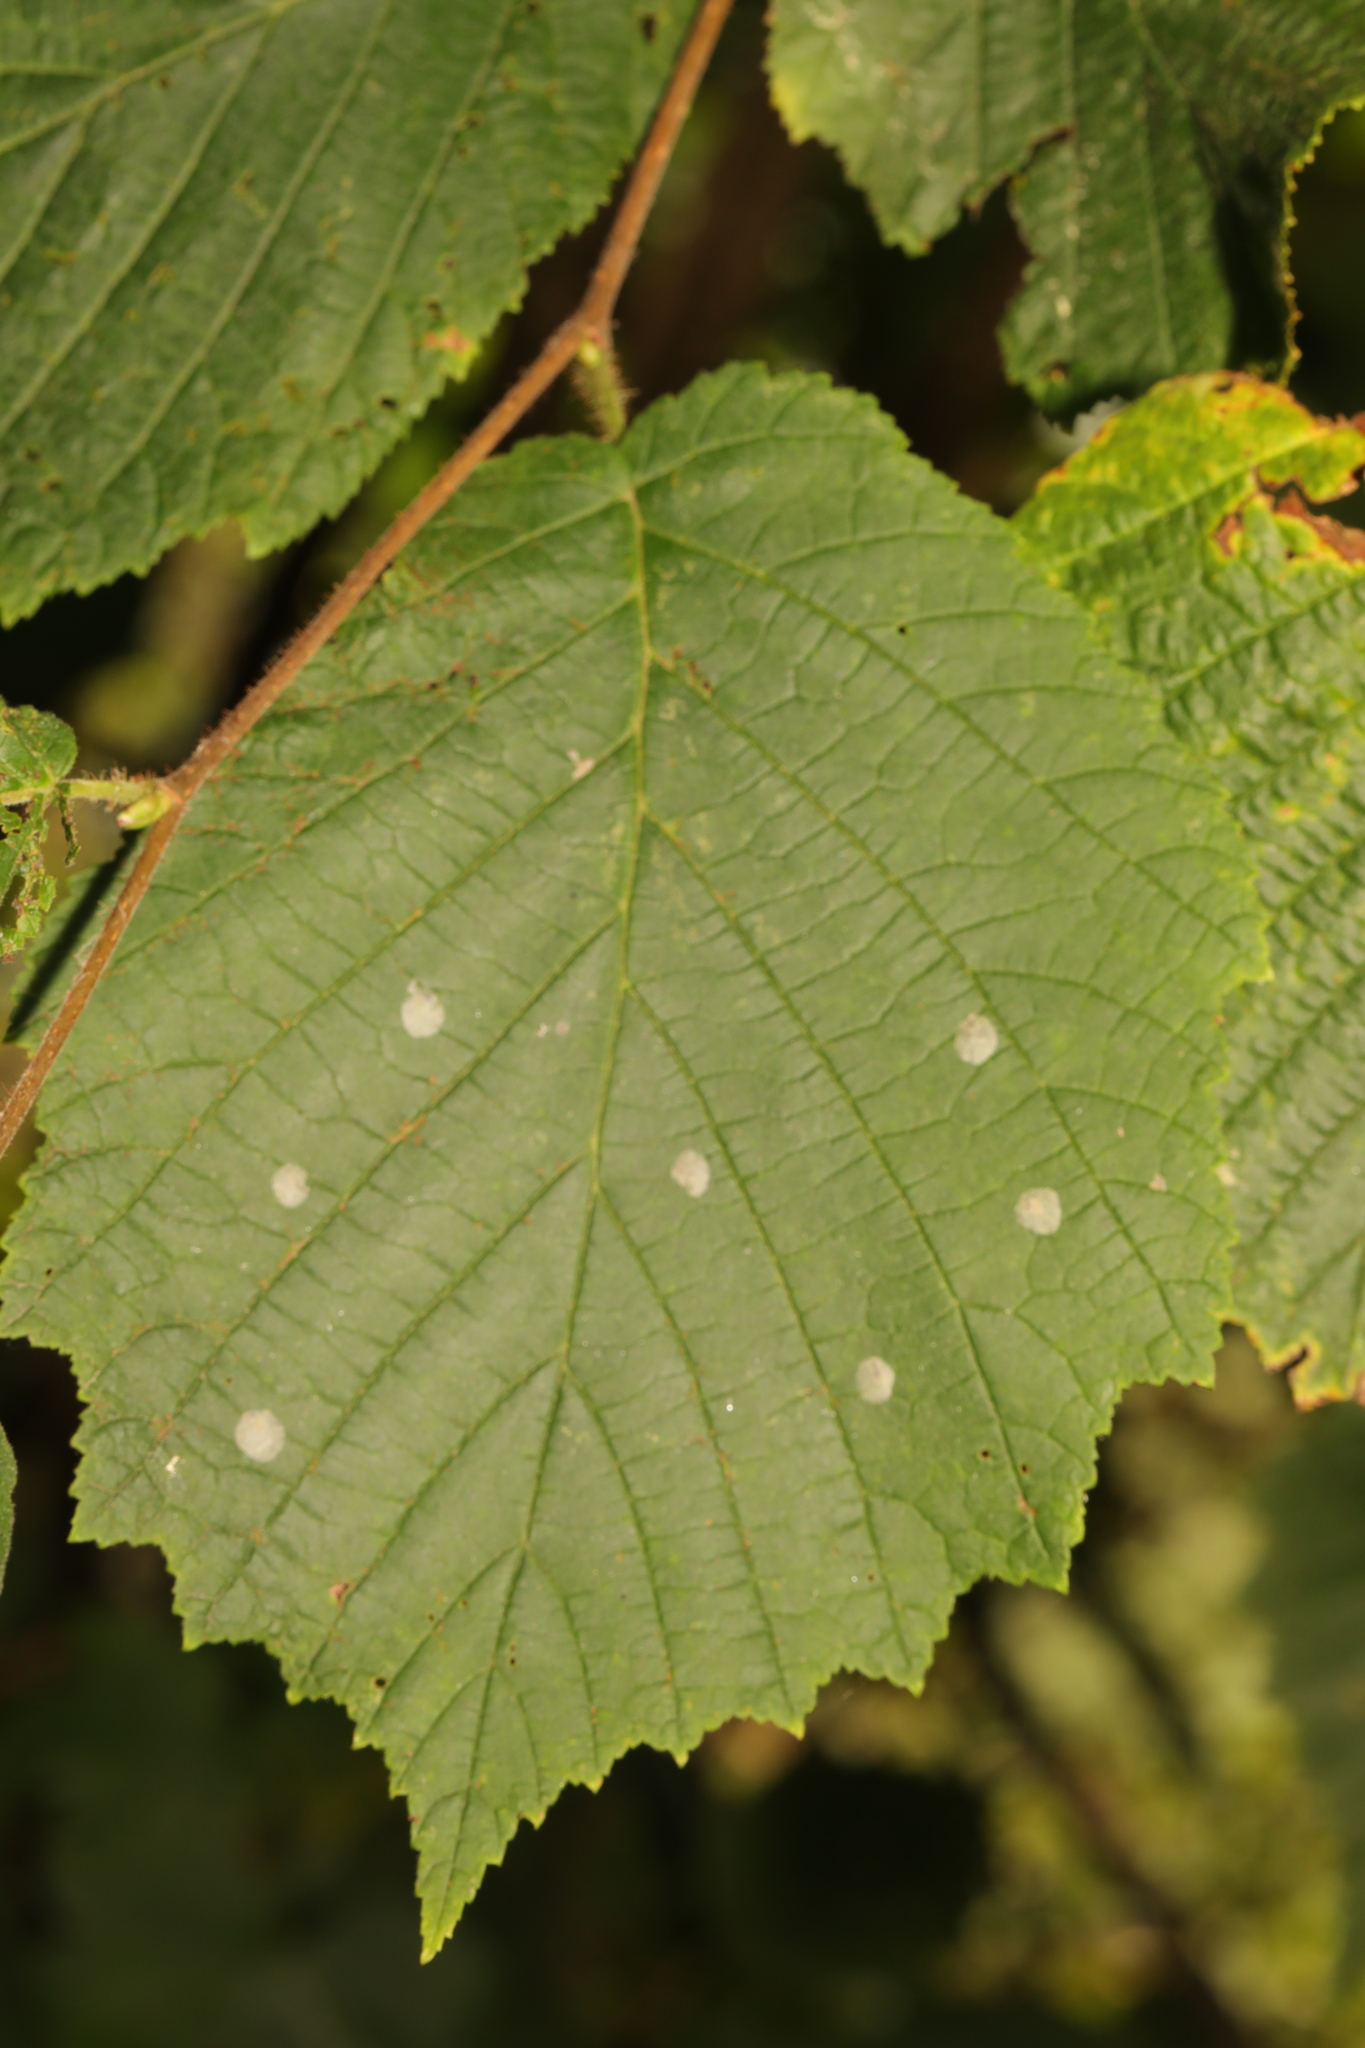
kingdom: Plantae
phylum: Tracheophyta
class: Magnoliopsida
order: Fagales
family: Betulaceae
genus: Corylus
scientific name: Corylus avellana
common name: European hazel
